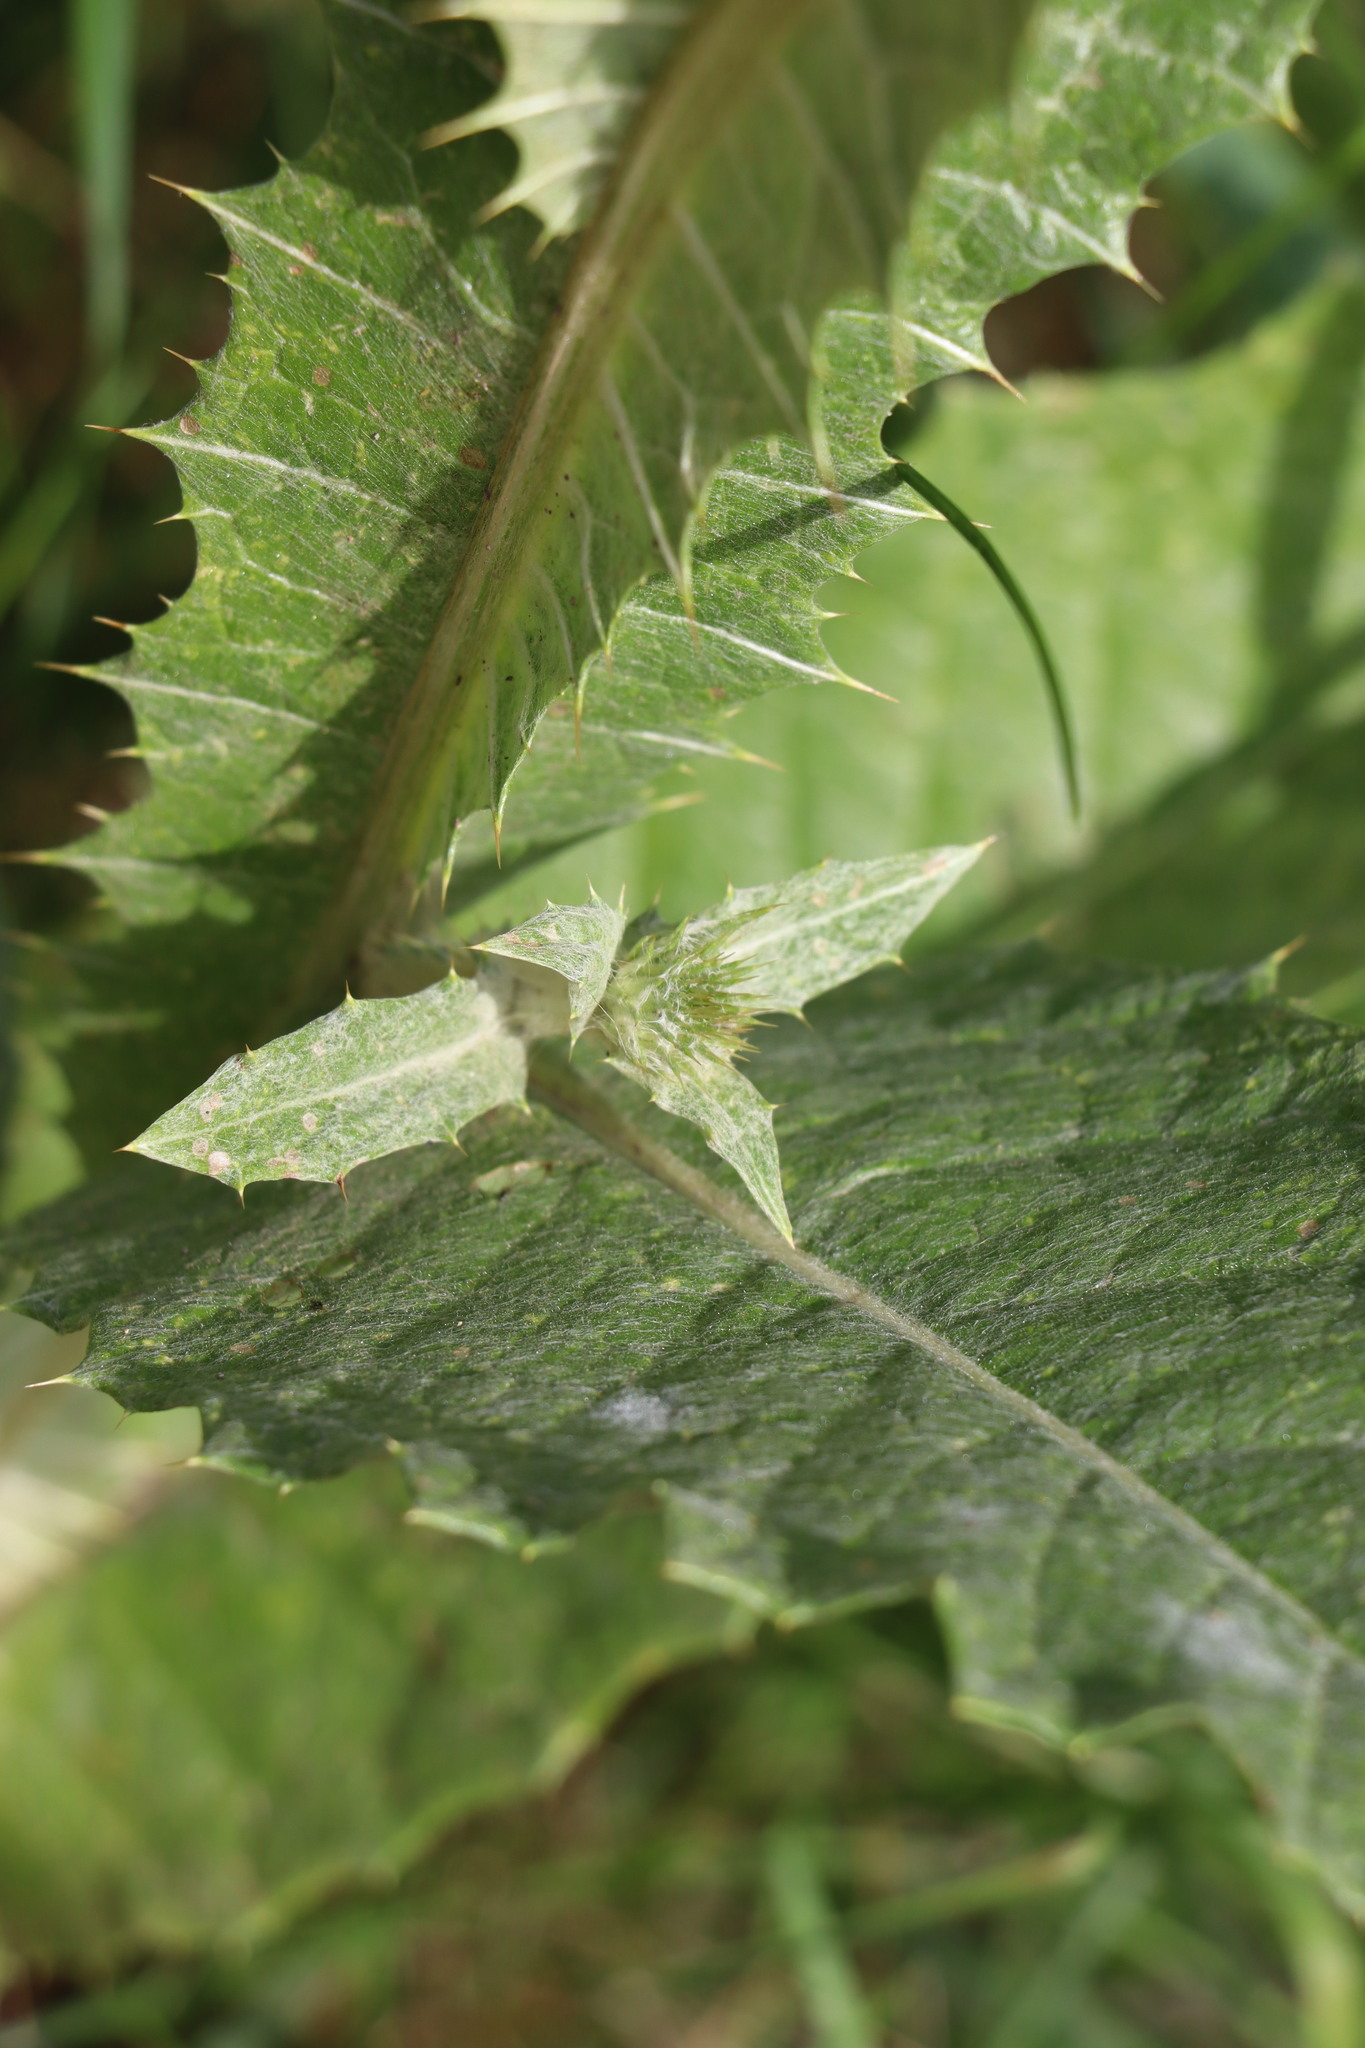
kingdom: Plantae
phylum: Tracheophyta
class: Magnoliopsida
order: Asterales
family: Asteraceae
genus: Onopordum
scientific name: Onopordum acanthium
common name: Scotch thistle
